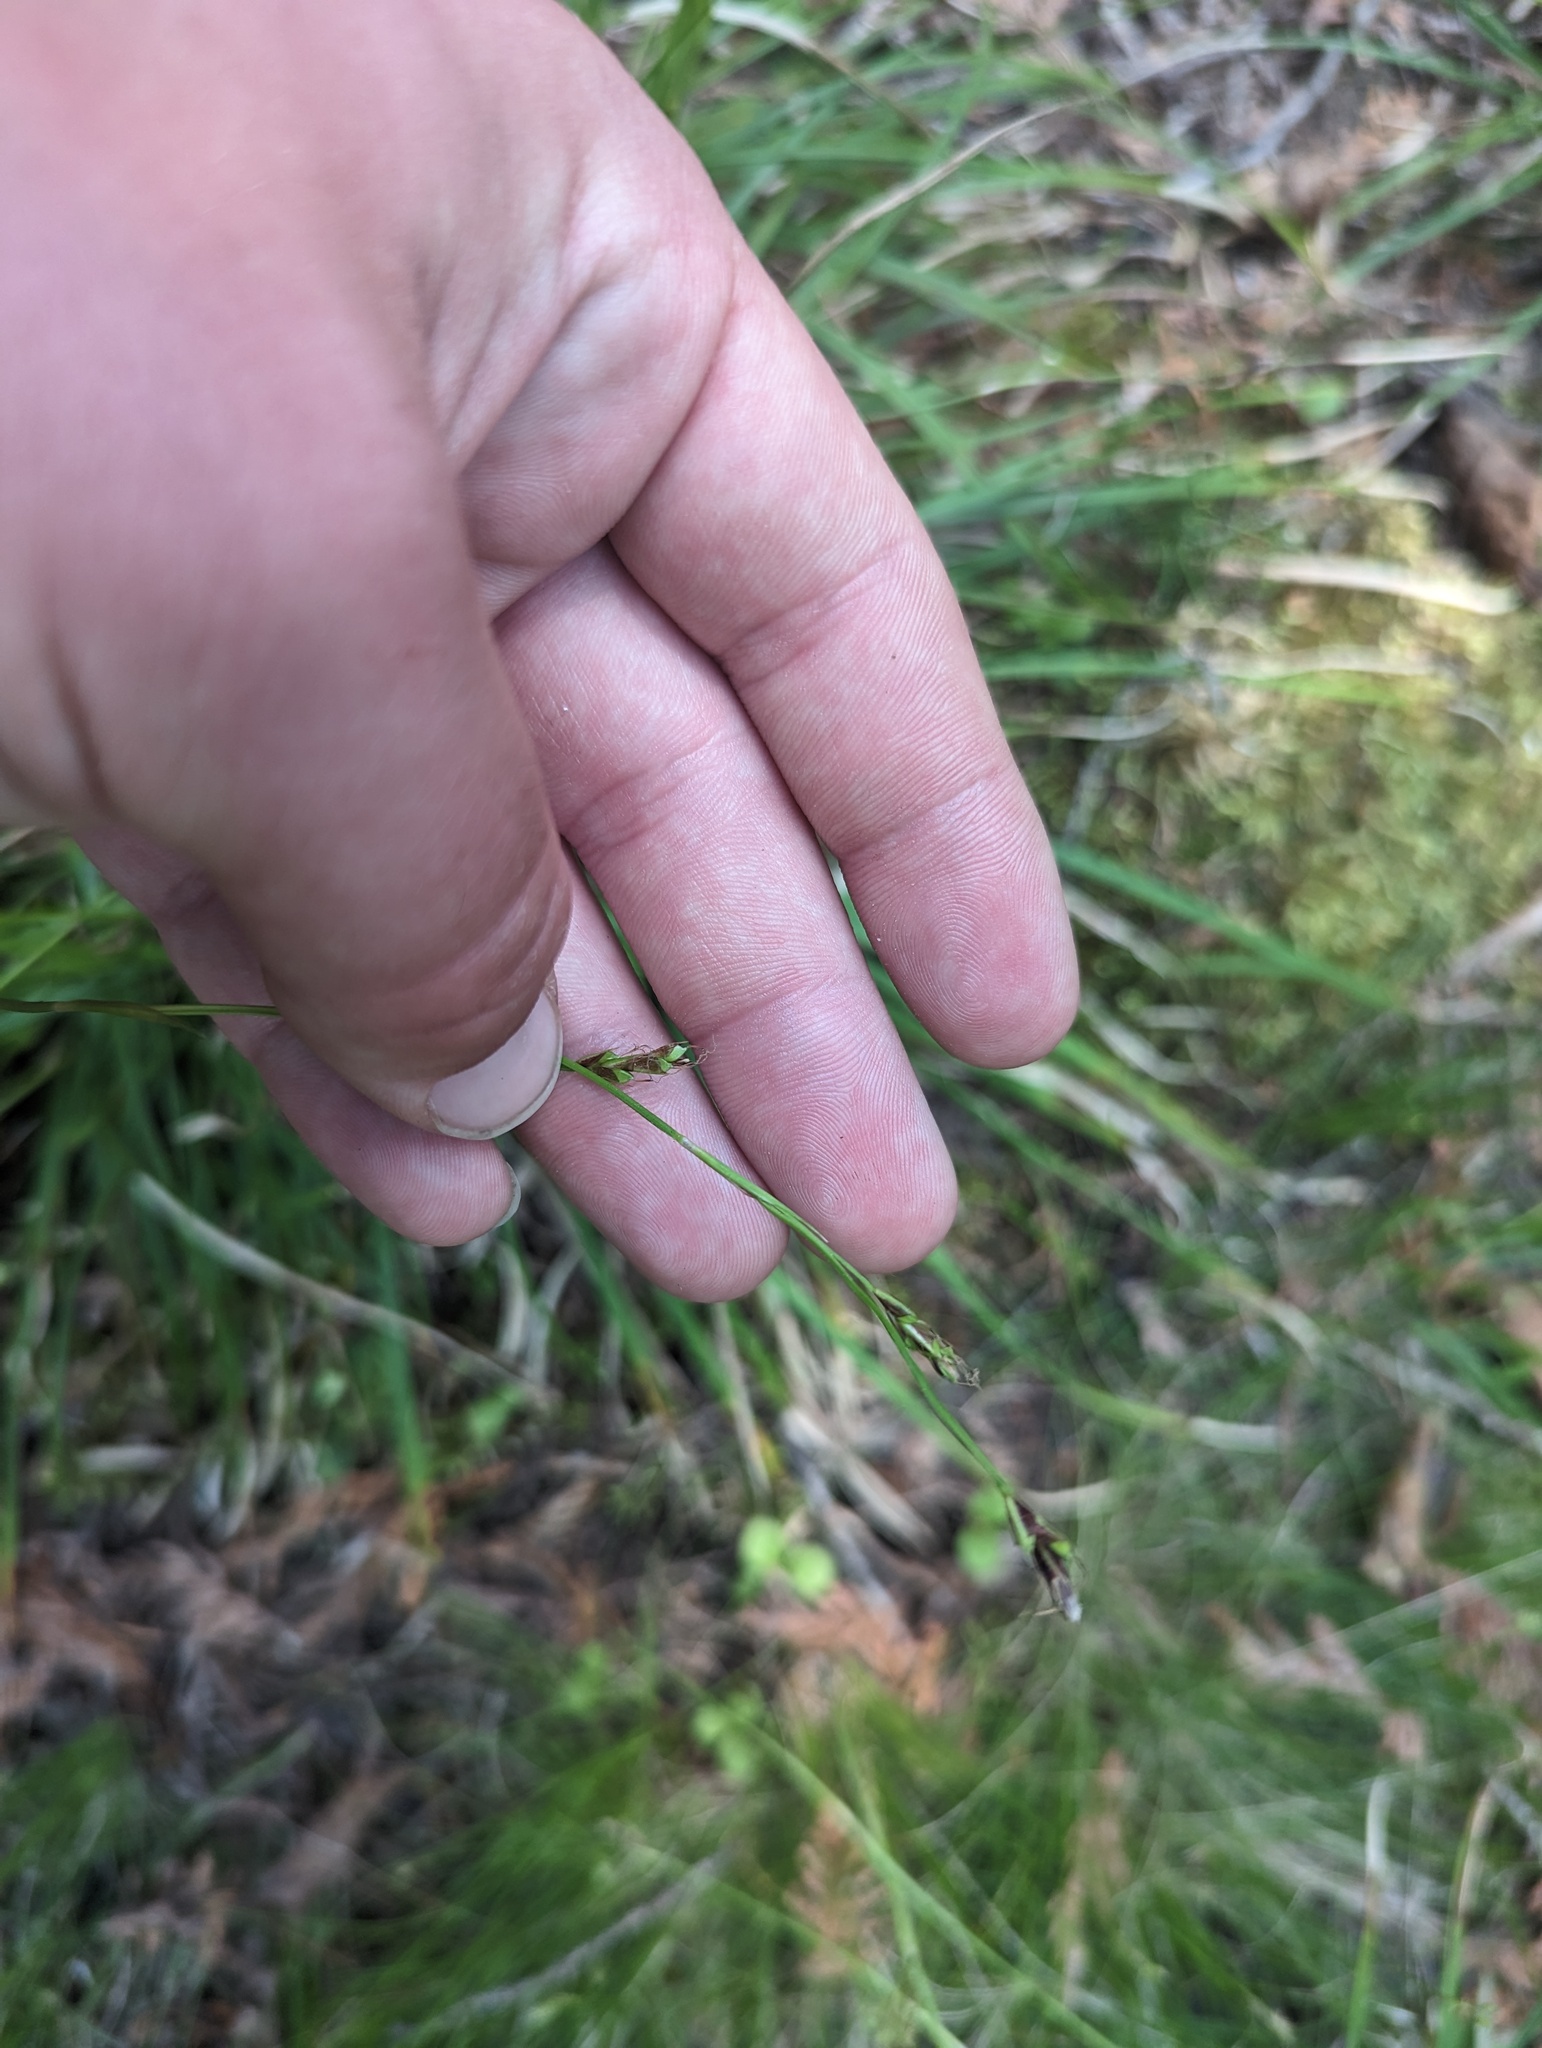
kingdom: Plantae
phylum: Tracheophyta
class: Liliopsida
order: Poales
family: Cyperaceae
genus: Carex
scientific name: Carex pedunculata
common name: Pedunculate sedge
